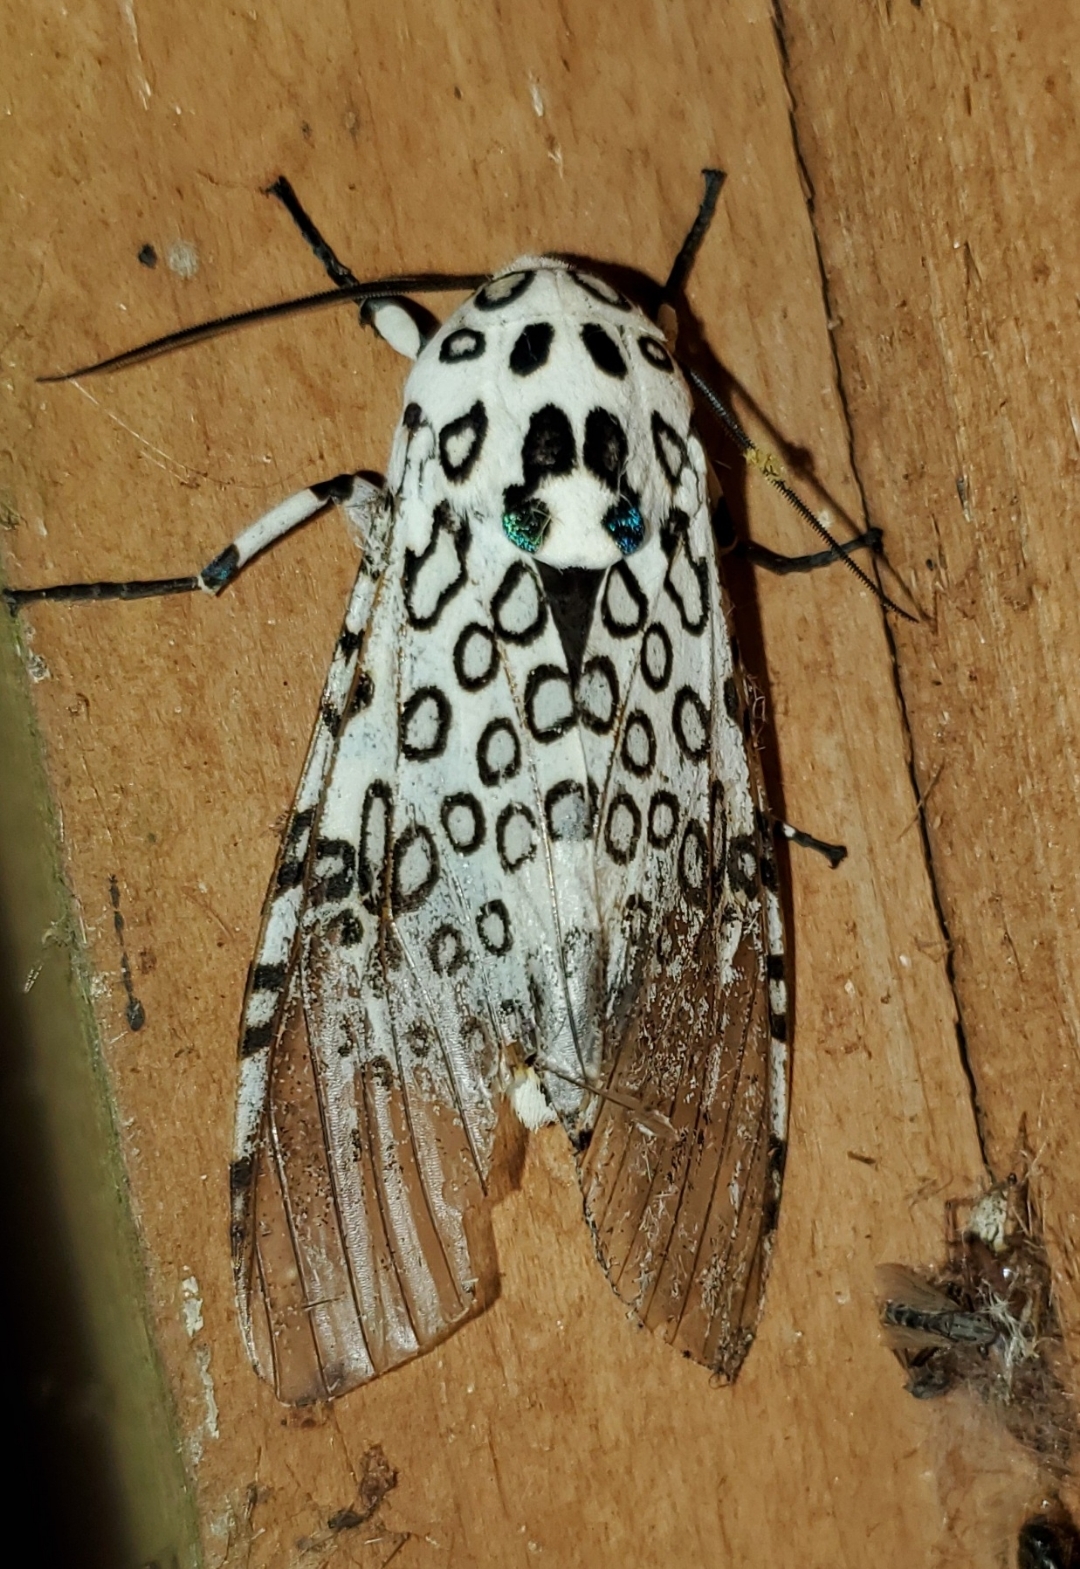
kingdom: Animalia
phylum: Arthropoda
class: Insecta
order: Lepidoptera
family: Erebidae
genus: Hypercompe
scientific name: Hypercompe scribonia
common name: Giant leopard moth
